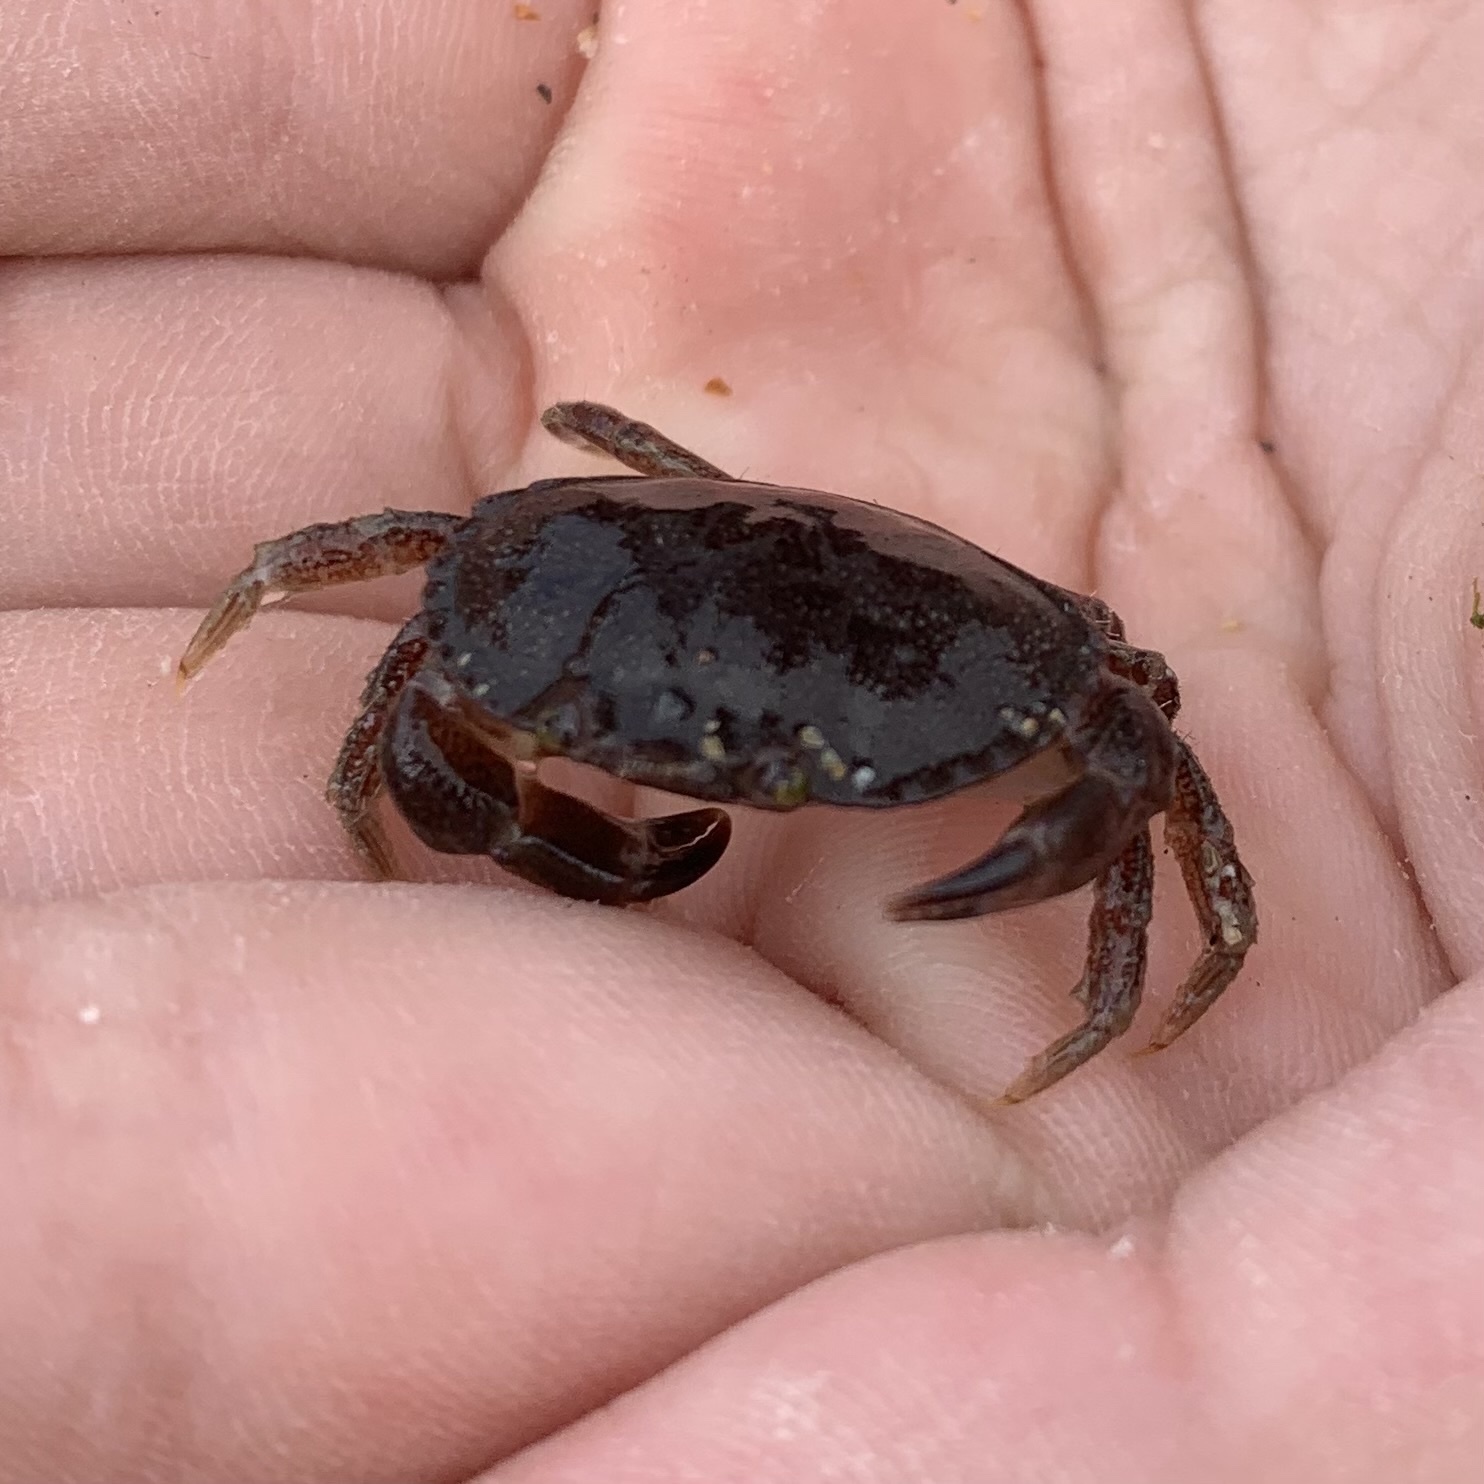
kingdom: Animalia
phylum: Arthropoda
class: Malacostraca
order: Decapoda
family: Cancridae
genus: Cancer
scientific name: Cancer pagurus
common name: Edible crab
